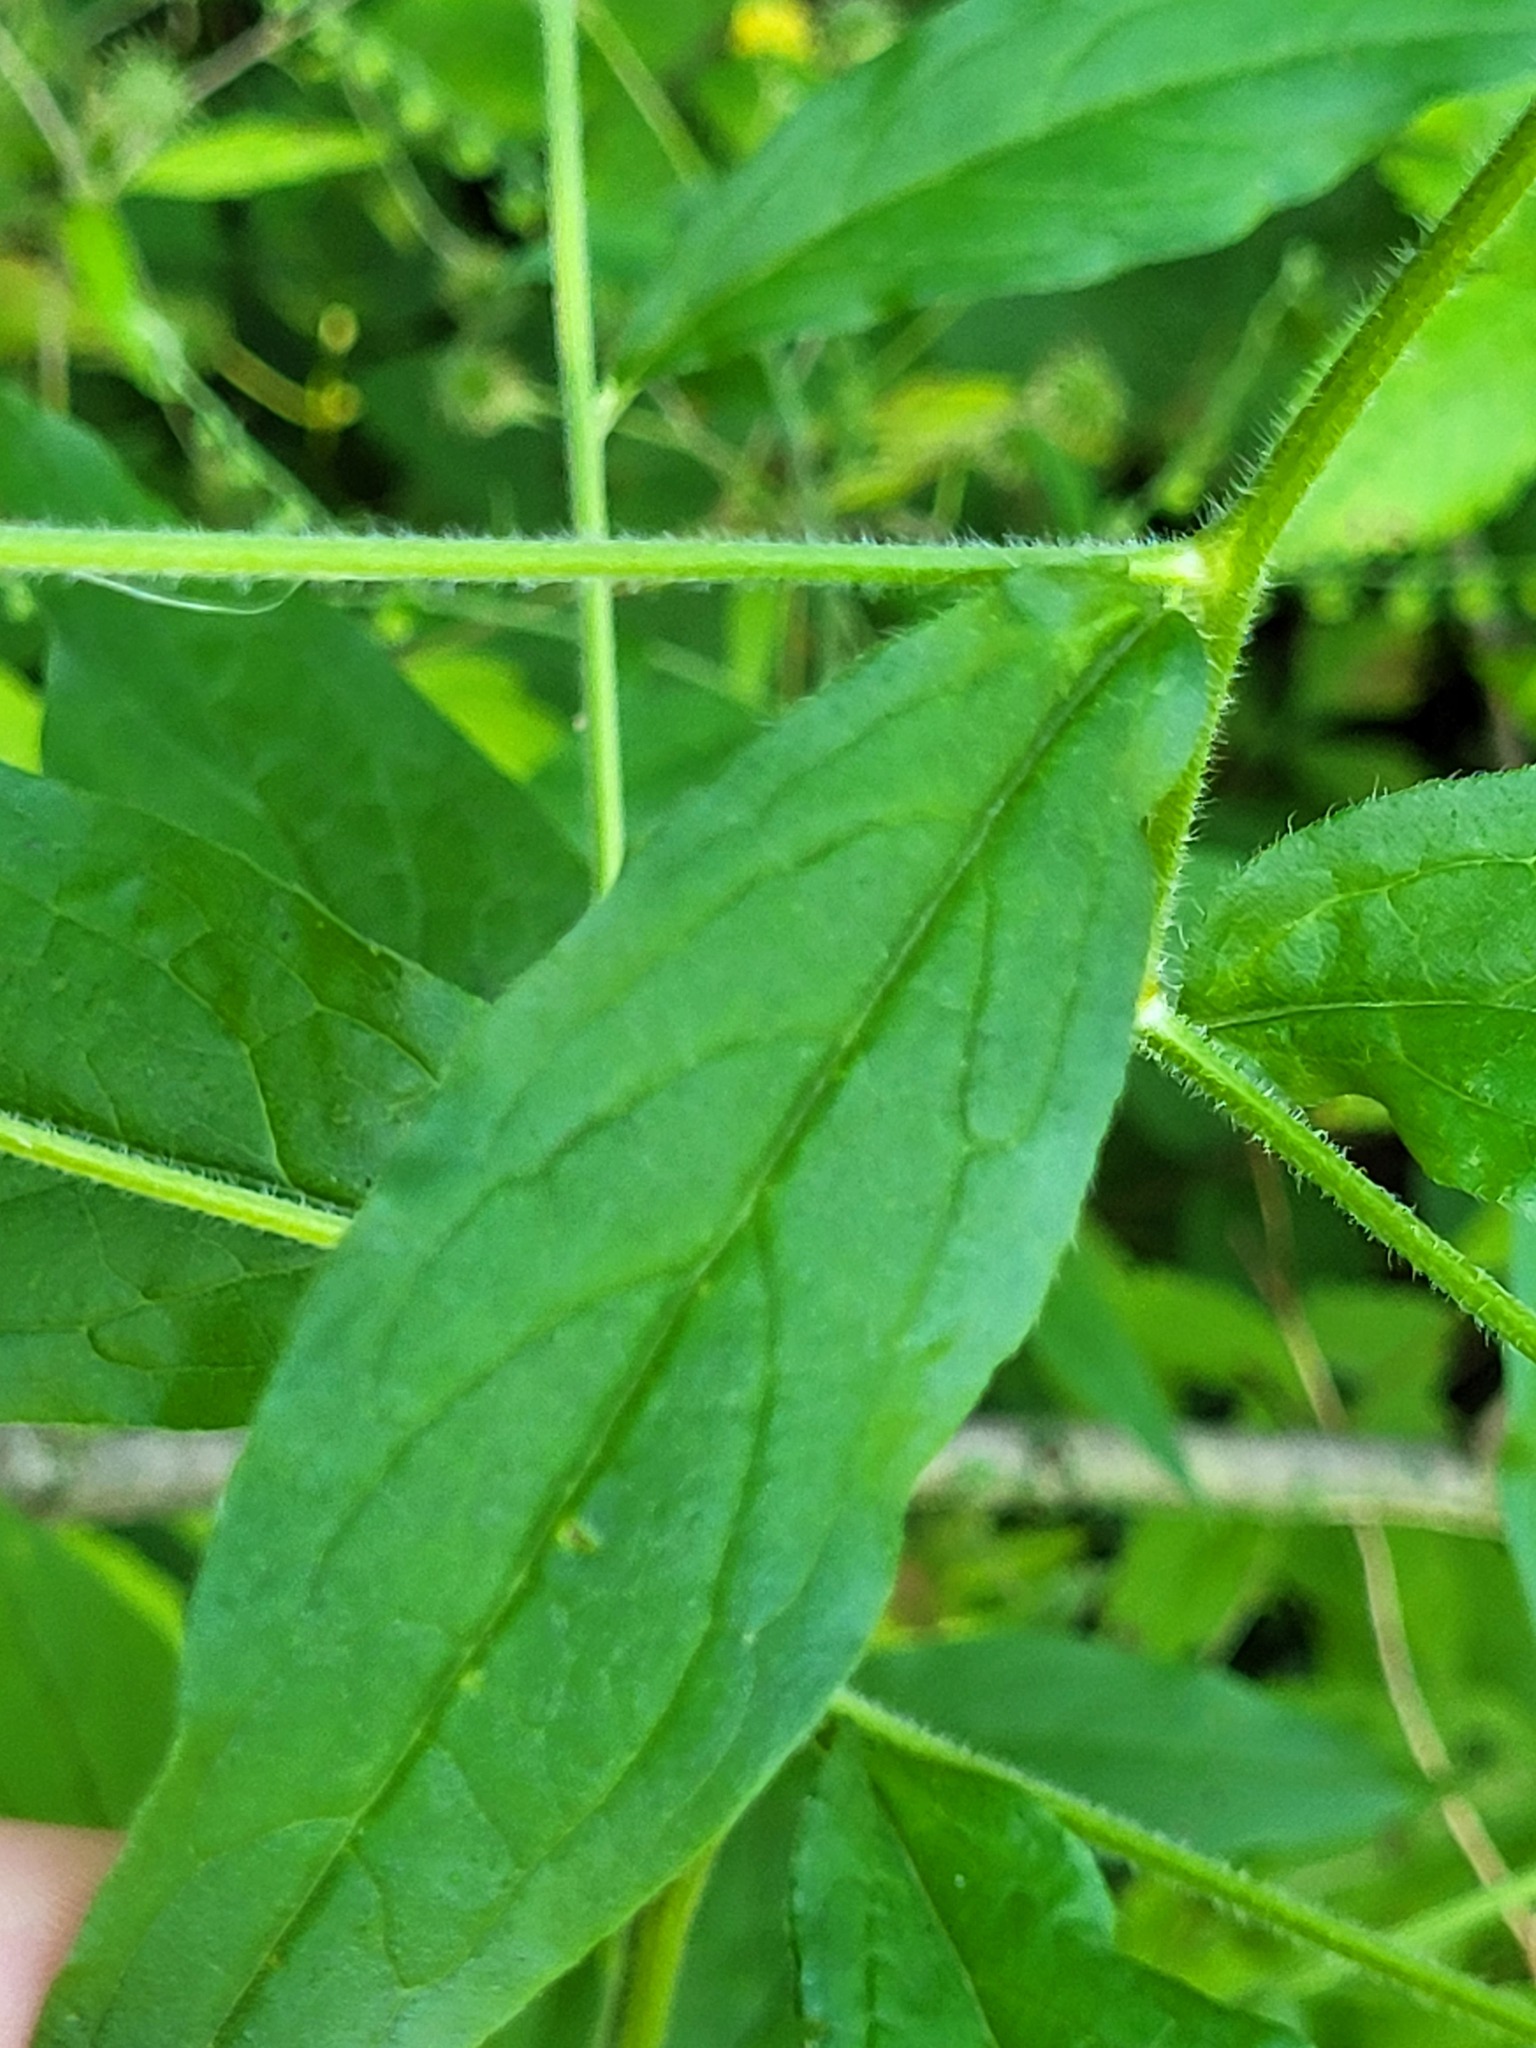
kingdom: Plantae
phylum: Tracheophyta
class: Magnoliopsida
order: Boraginales
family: Boraginaceae
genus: Hackelia
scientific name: Hackelia virginiana
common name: Beggar's-lice
